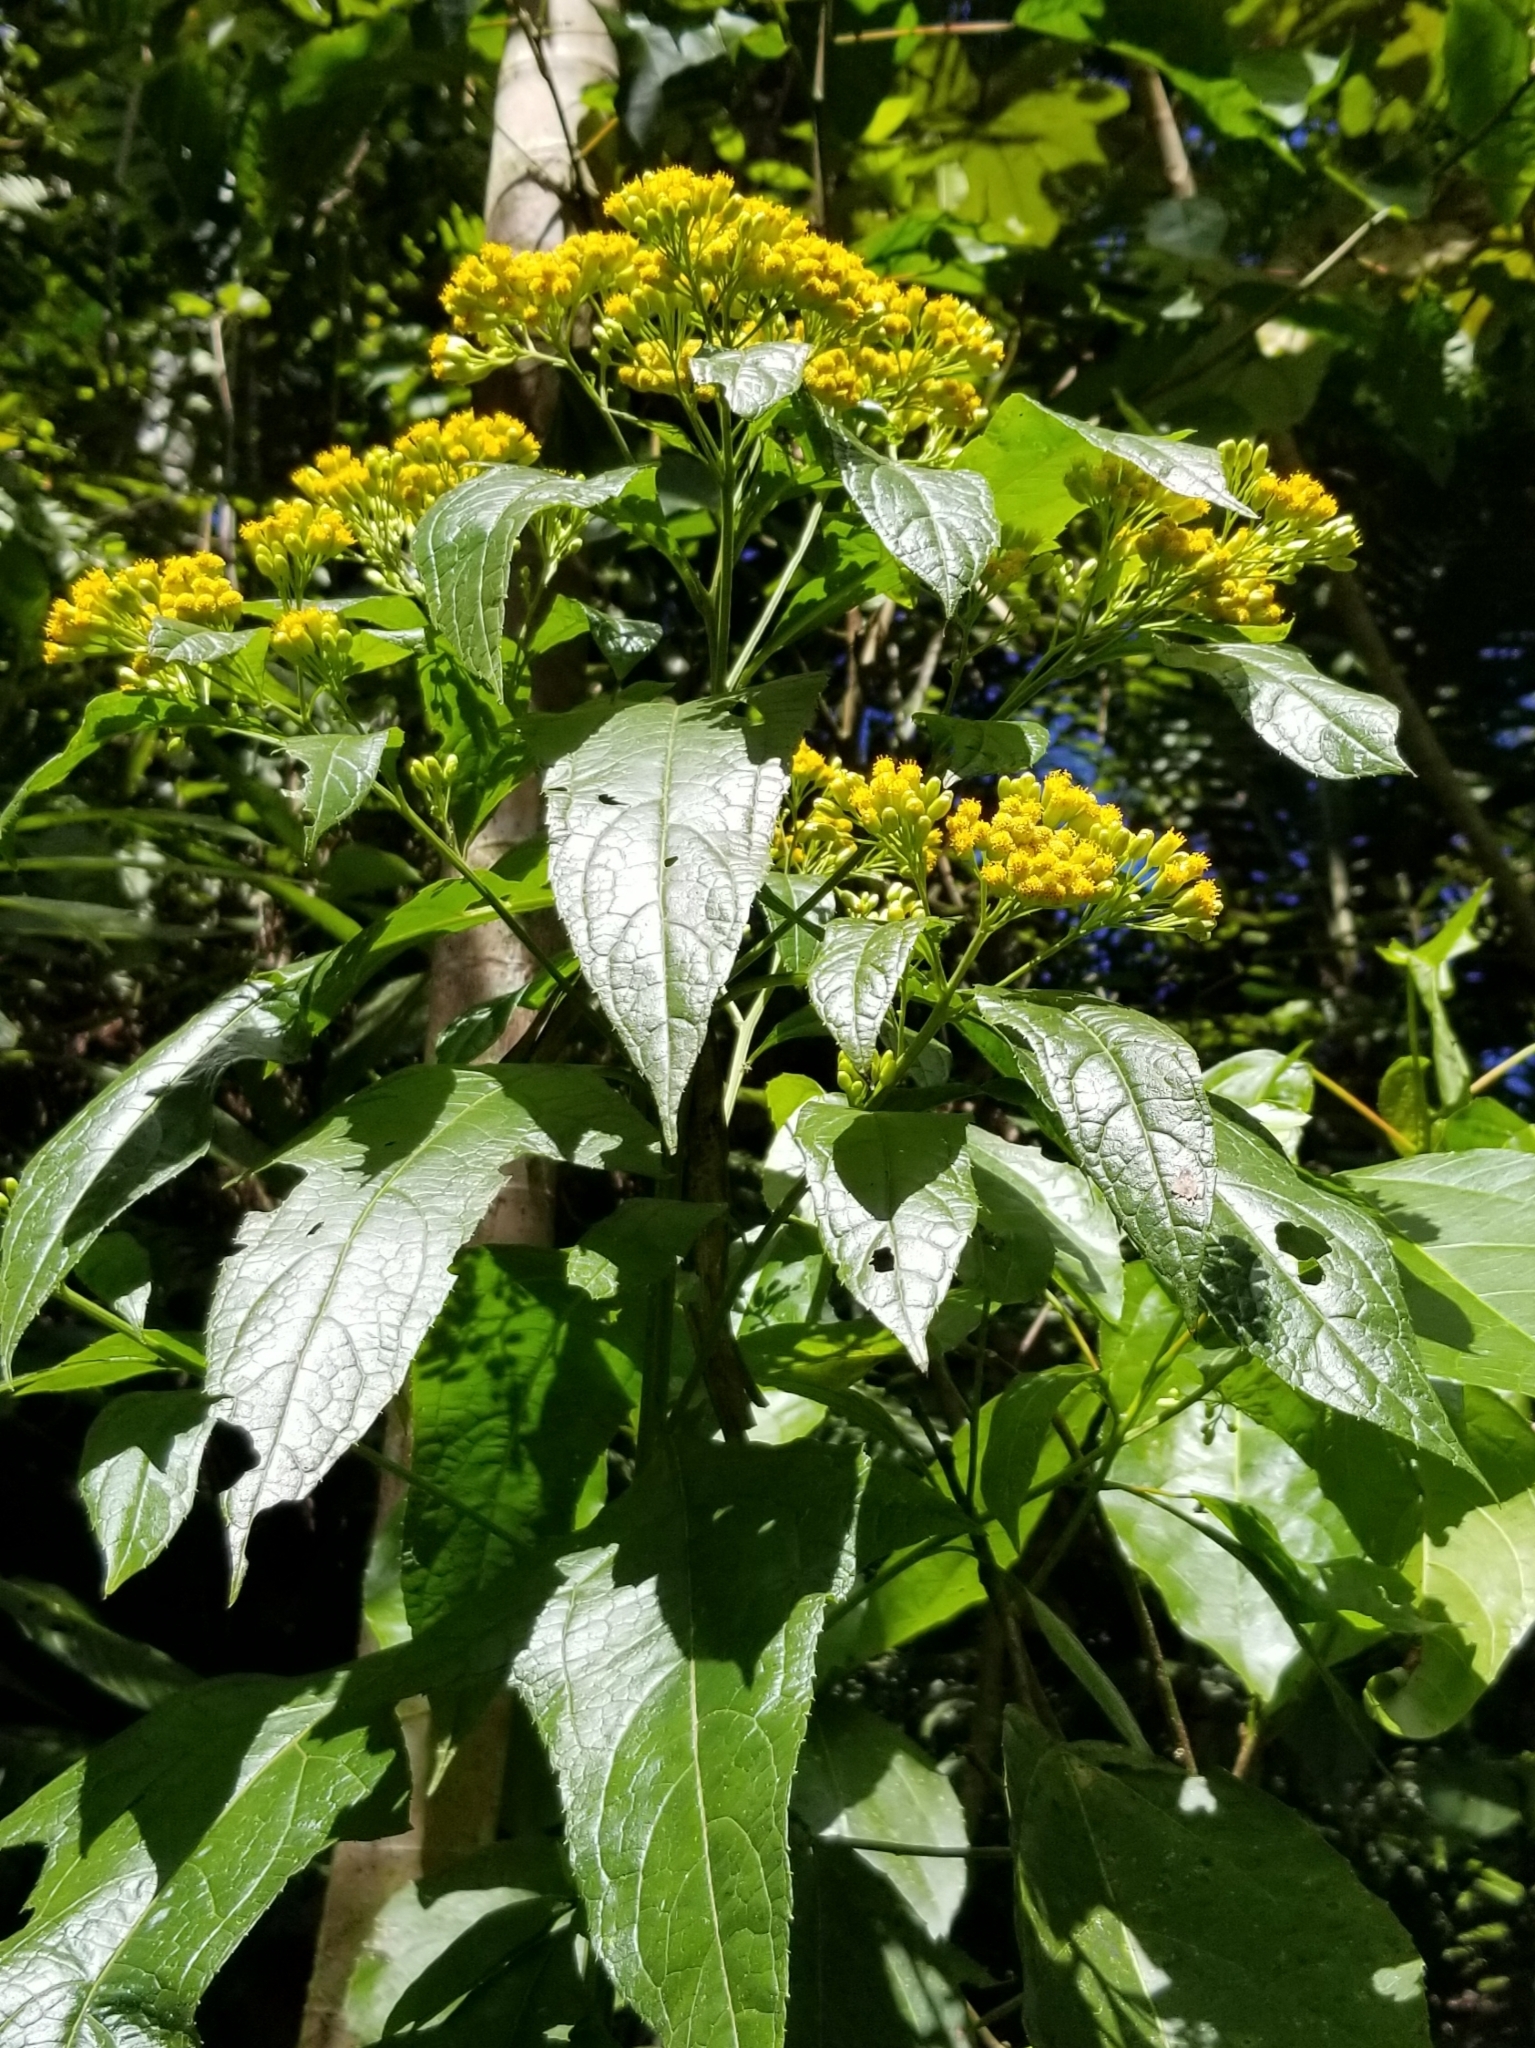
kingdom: Plantae
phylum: Tracheophyta
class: Magnoliopsida
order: Asterales
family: Asteraceae
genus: Neurolaena
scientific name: Neurolaena lobata
